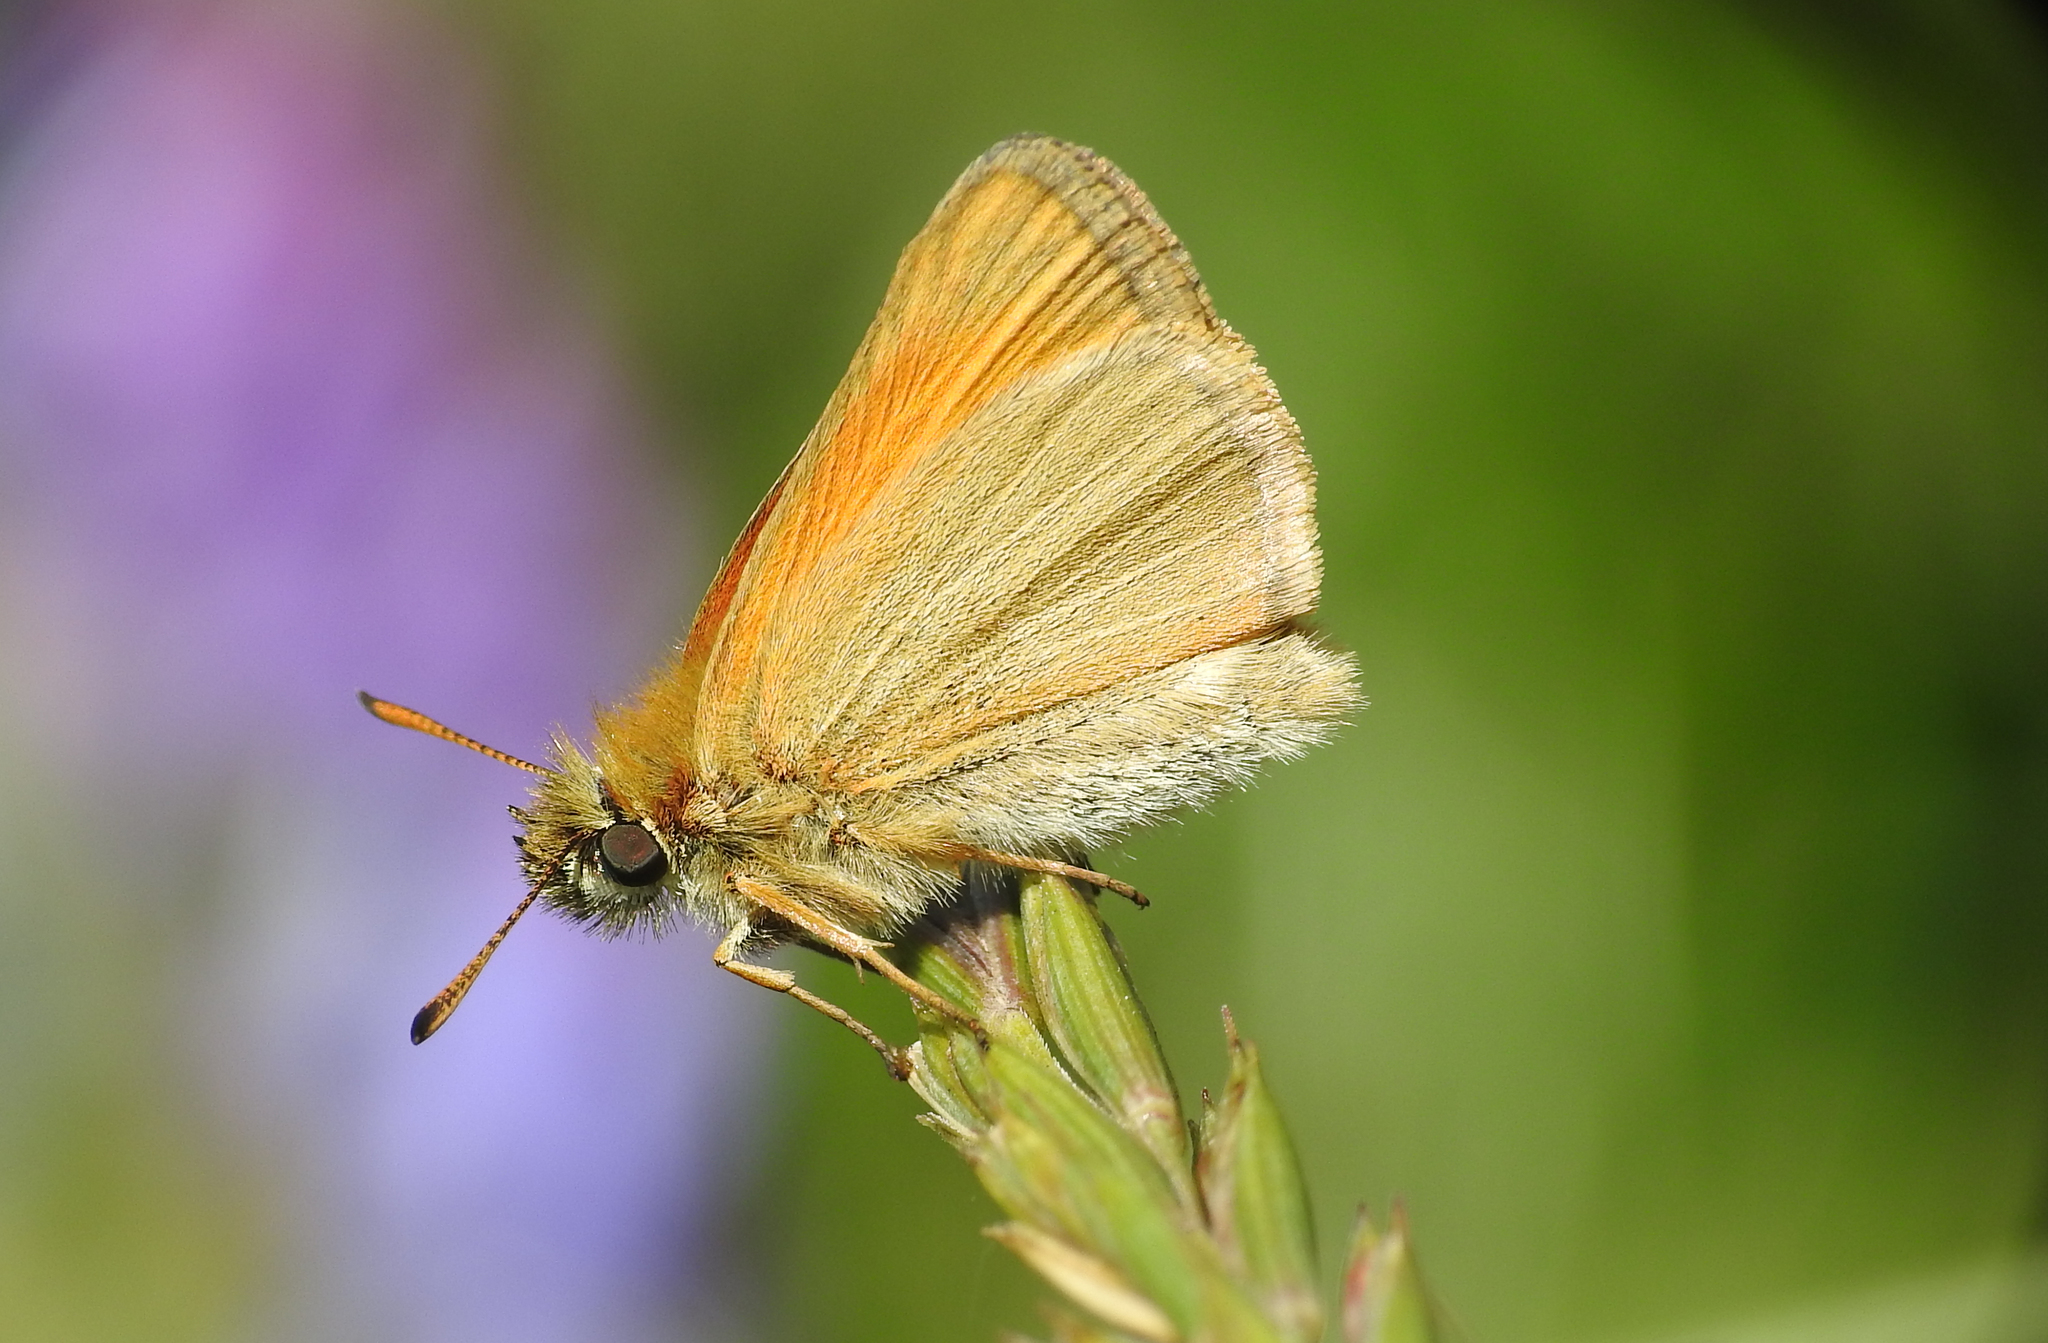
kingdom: Animalia
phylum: Arthropoda
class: Insecta
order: Lepidoptera
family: Hesperiidae
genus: Thymelicus
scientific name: Thymelicus lineola
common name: Essex skipper
